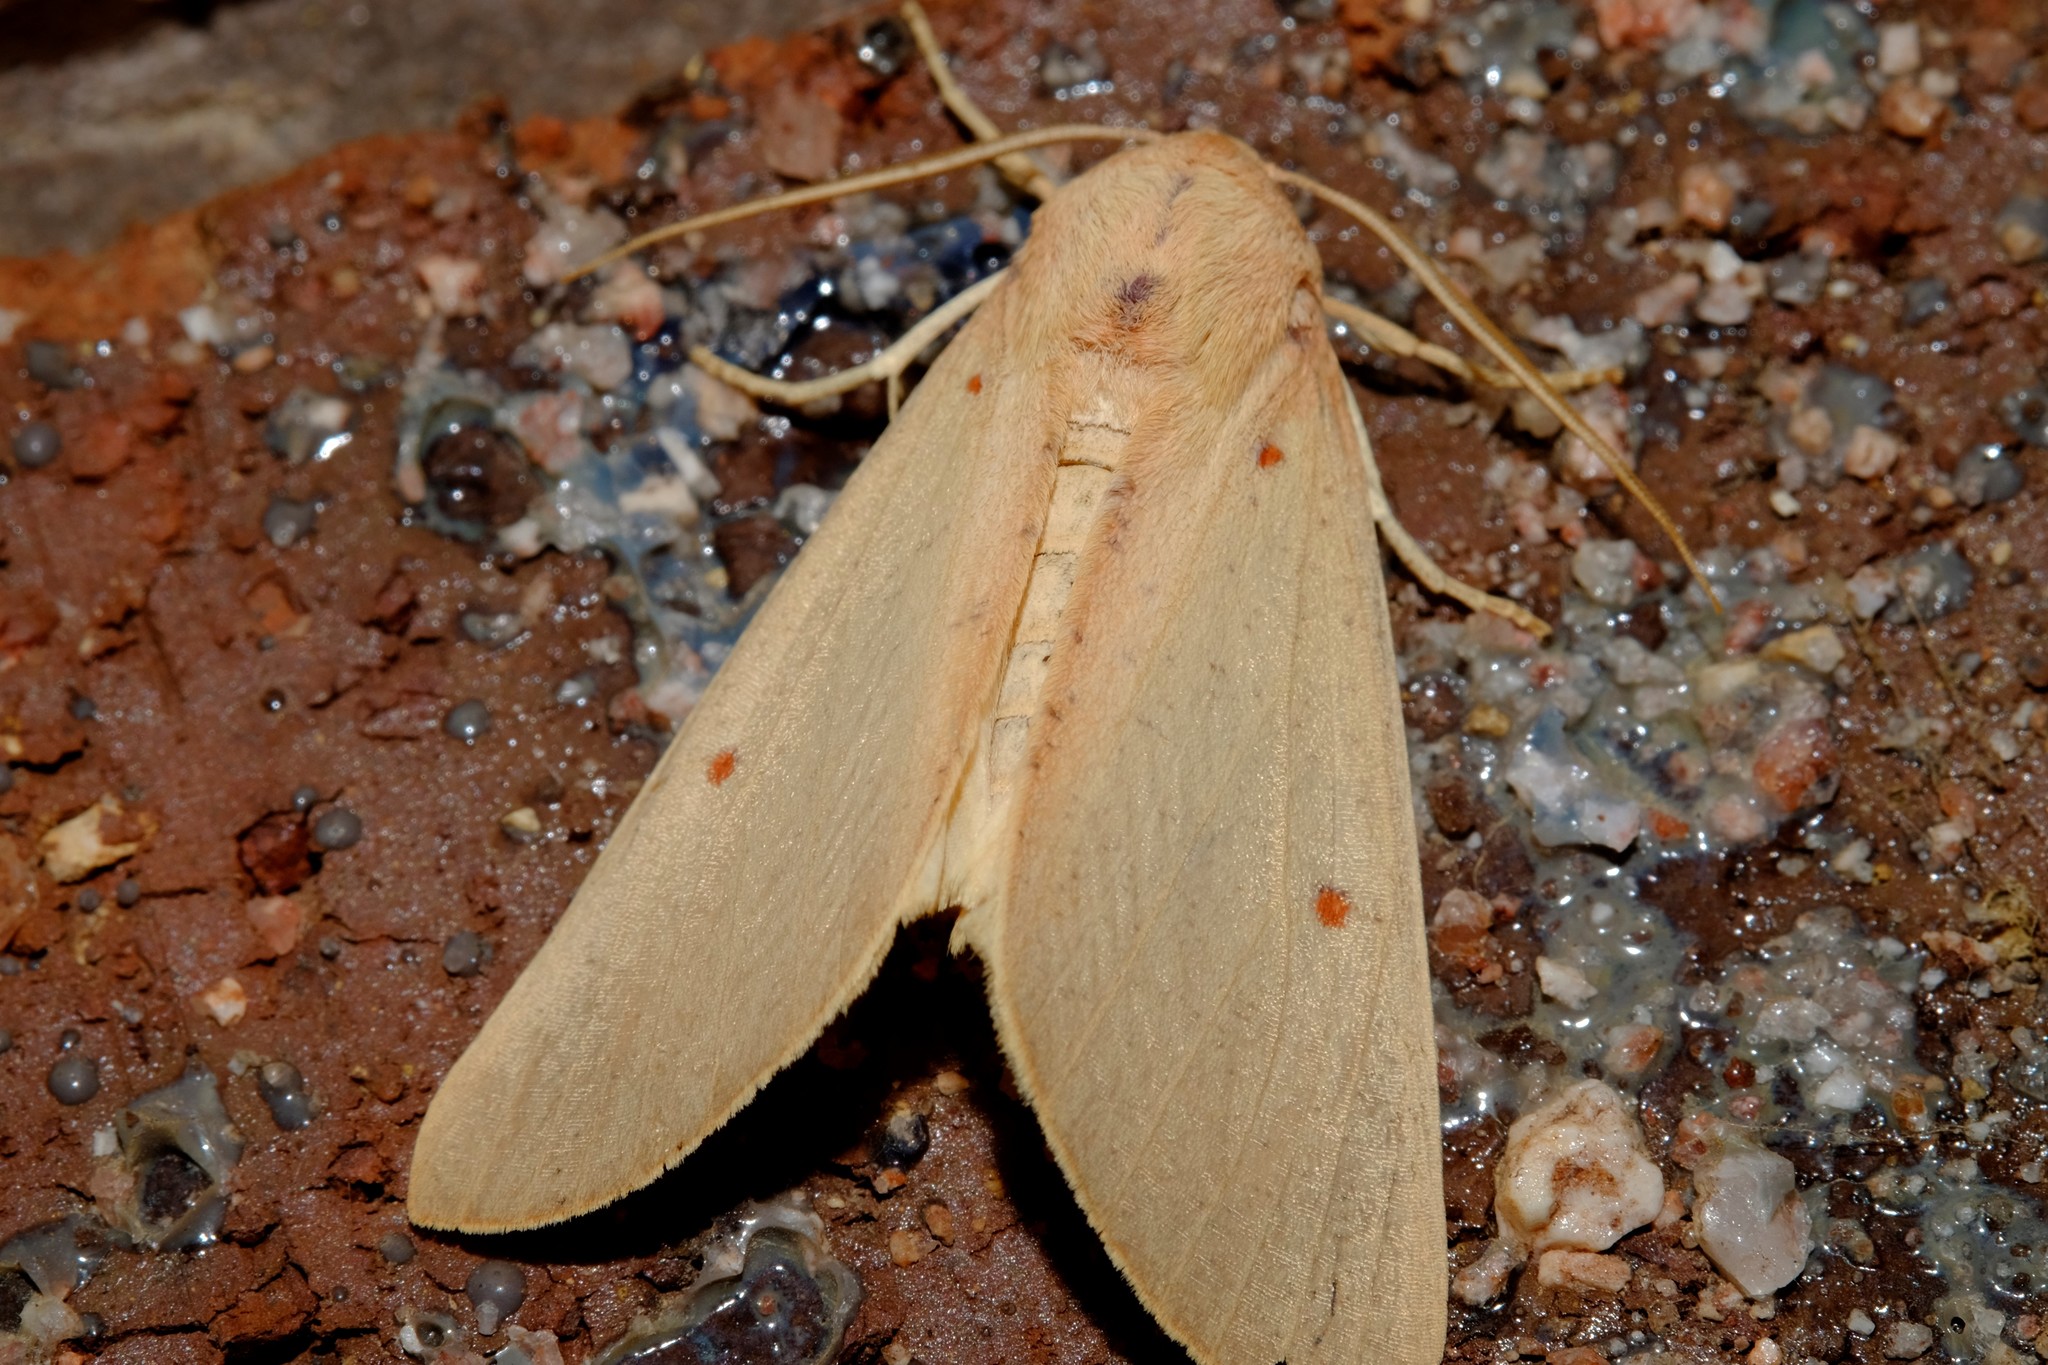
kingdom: Animalia
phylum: Arthropoda
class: Insecta
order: Lepidoptera
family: Geometridae
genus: Plesanemma
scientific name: Plesanemma fucata
